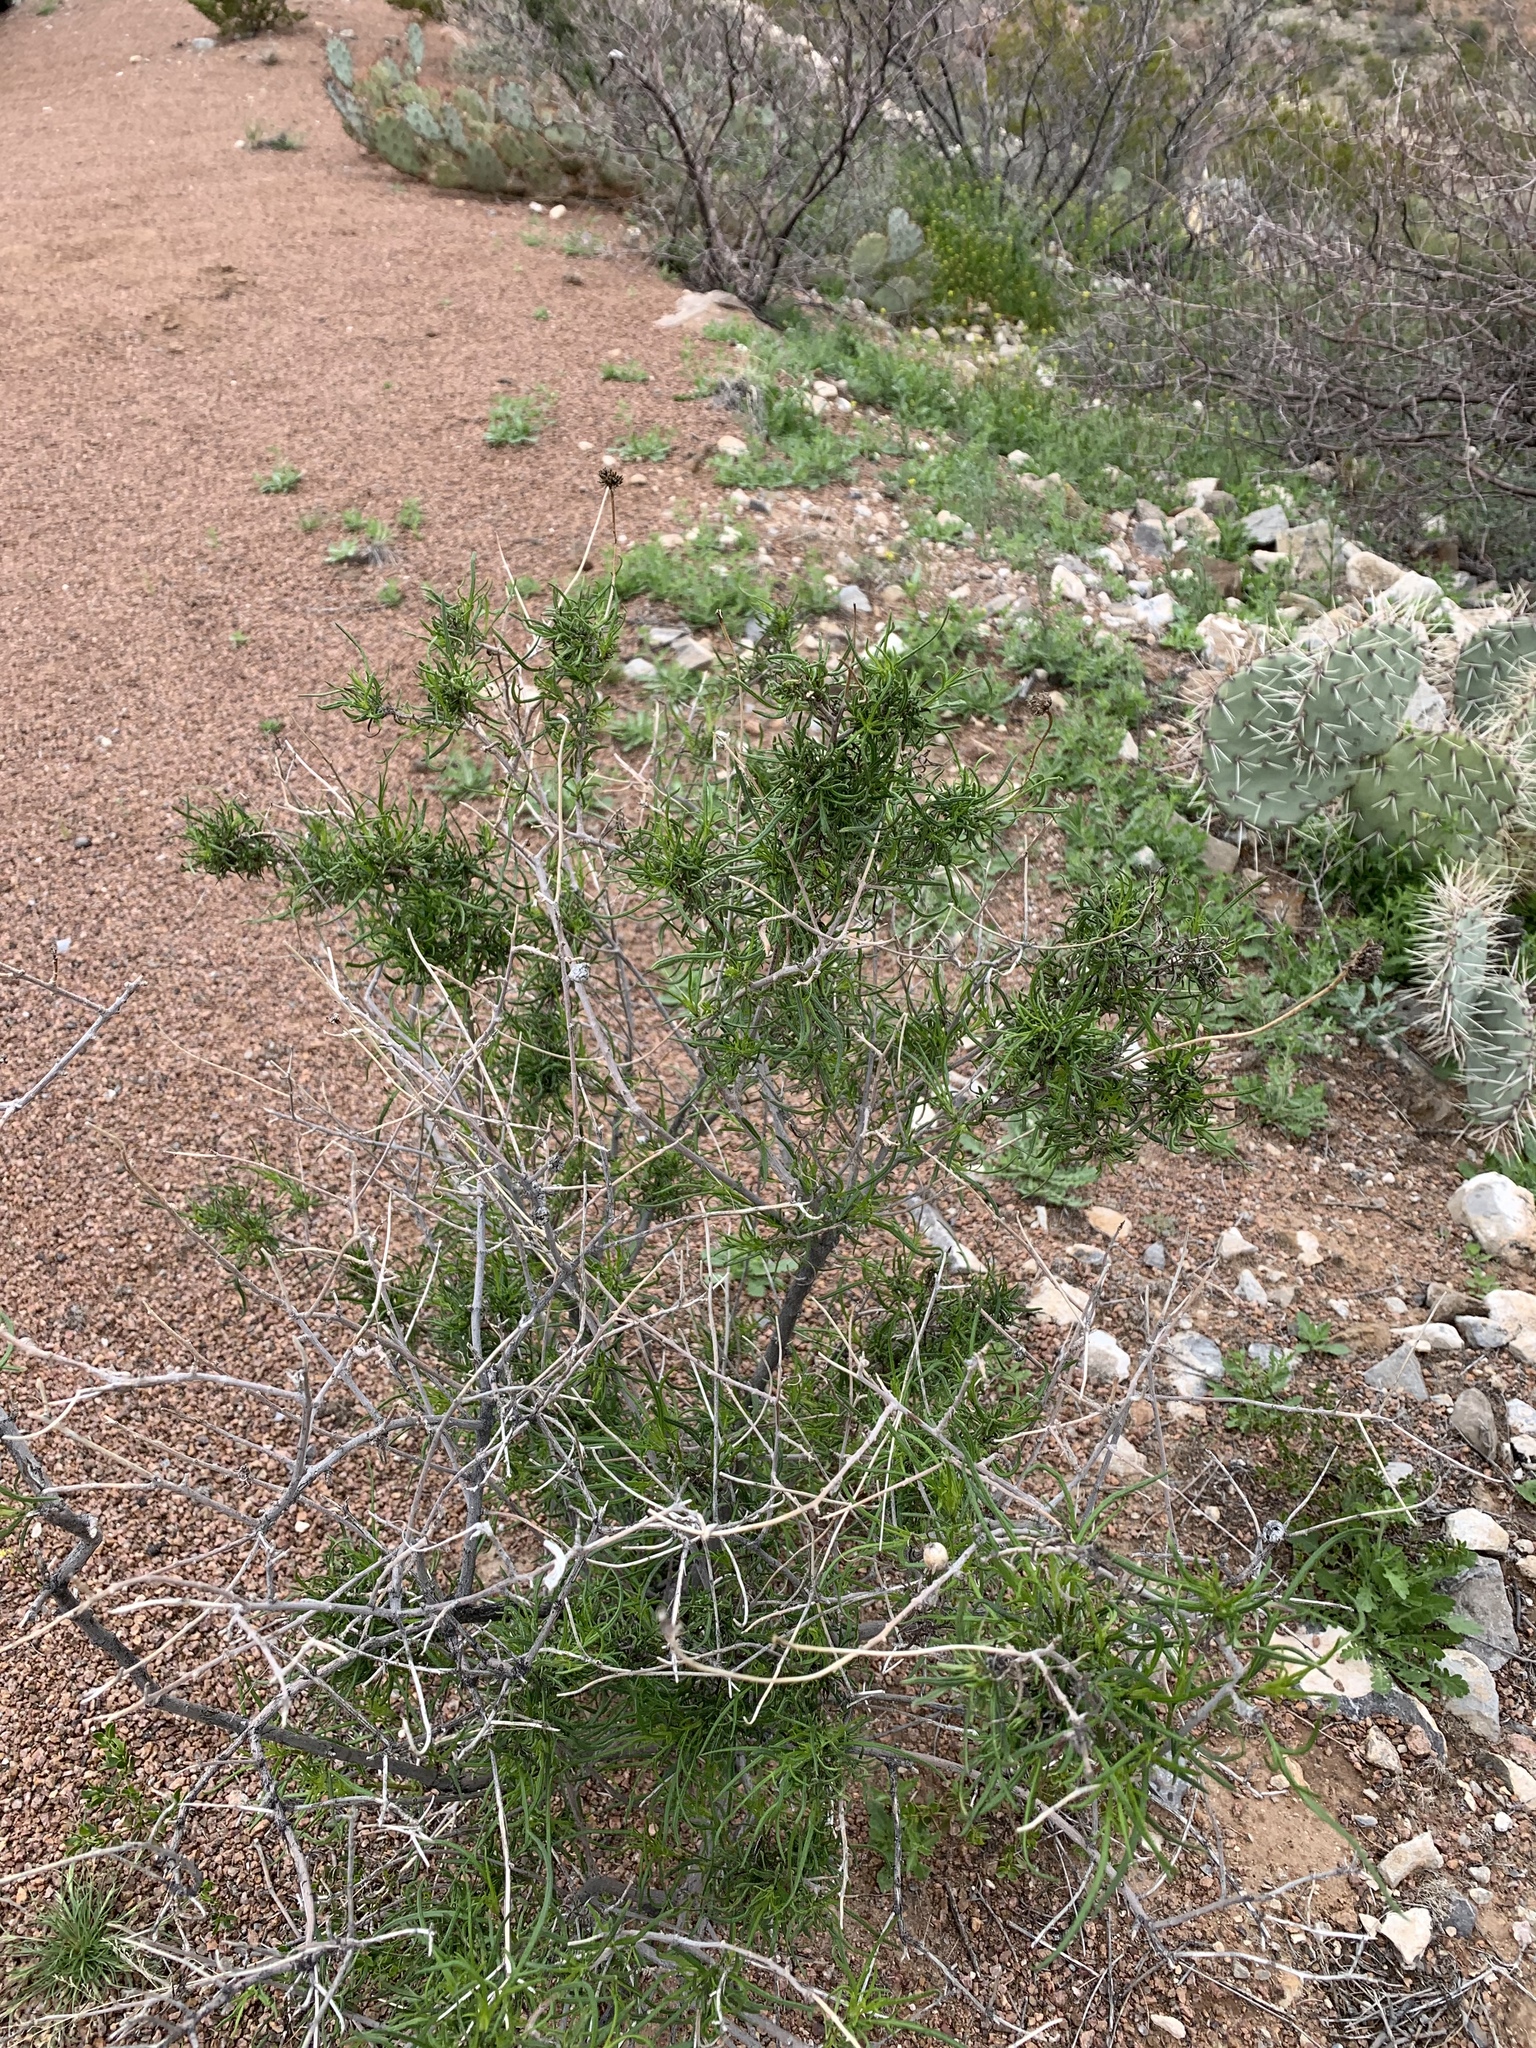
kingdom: Plantae
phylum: Tracheophyta
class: Magnoliopsida
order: Asterales
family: Asteraceae
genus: Sidneya
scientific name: Sidneya tenuifolia
